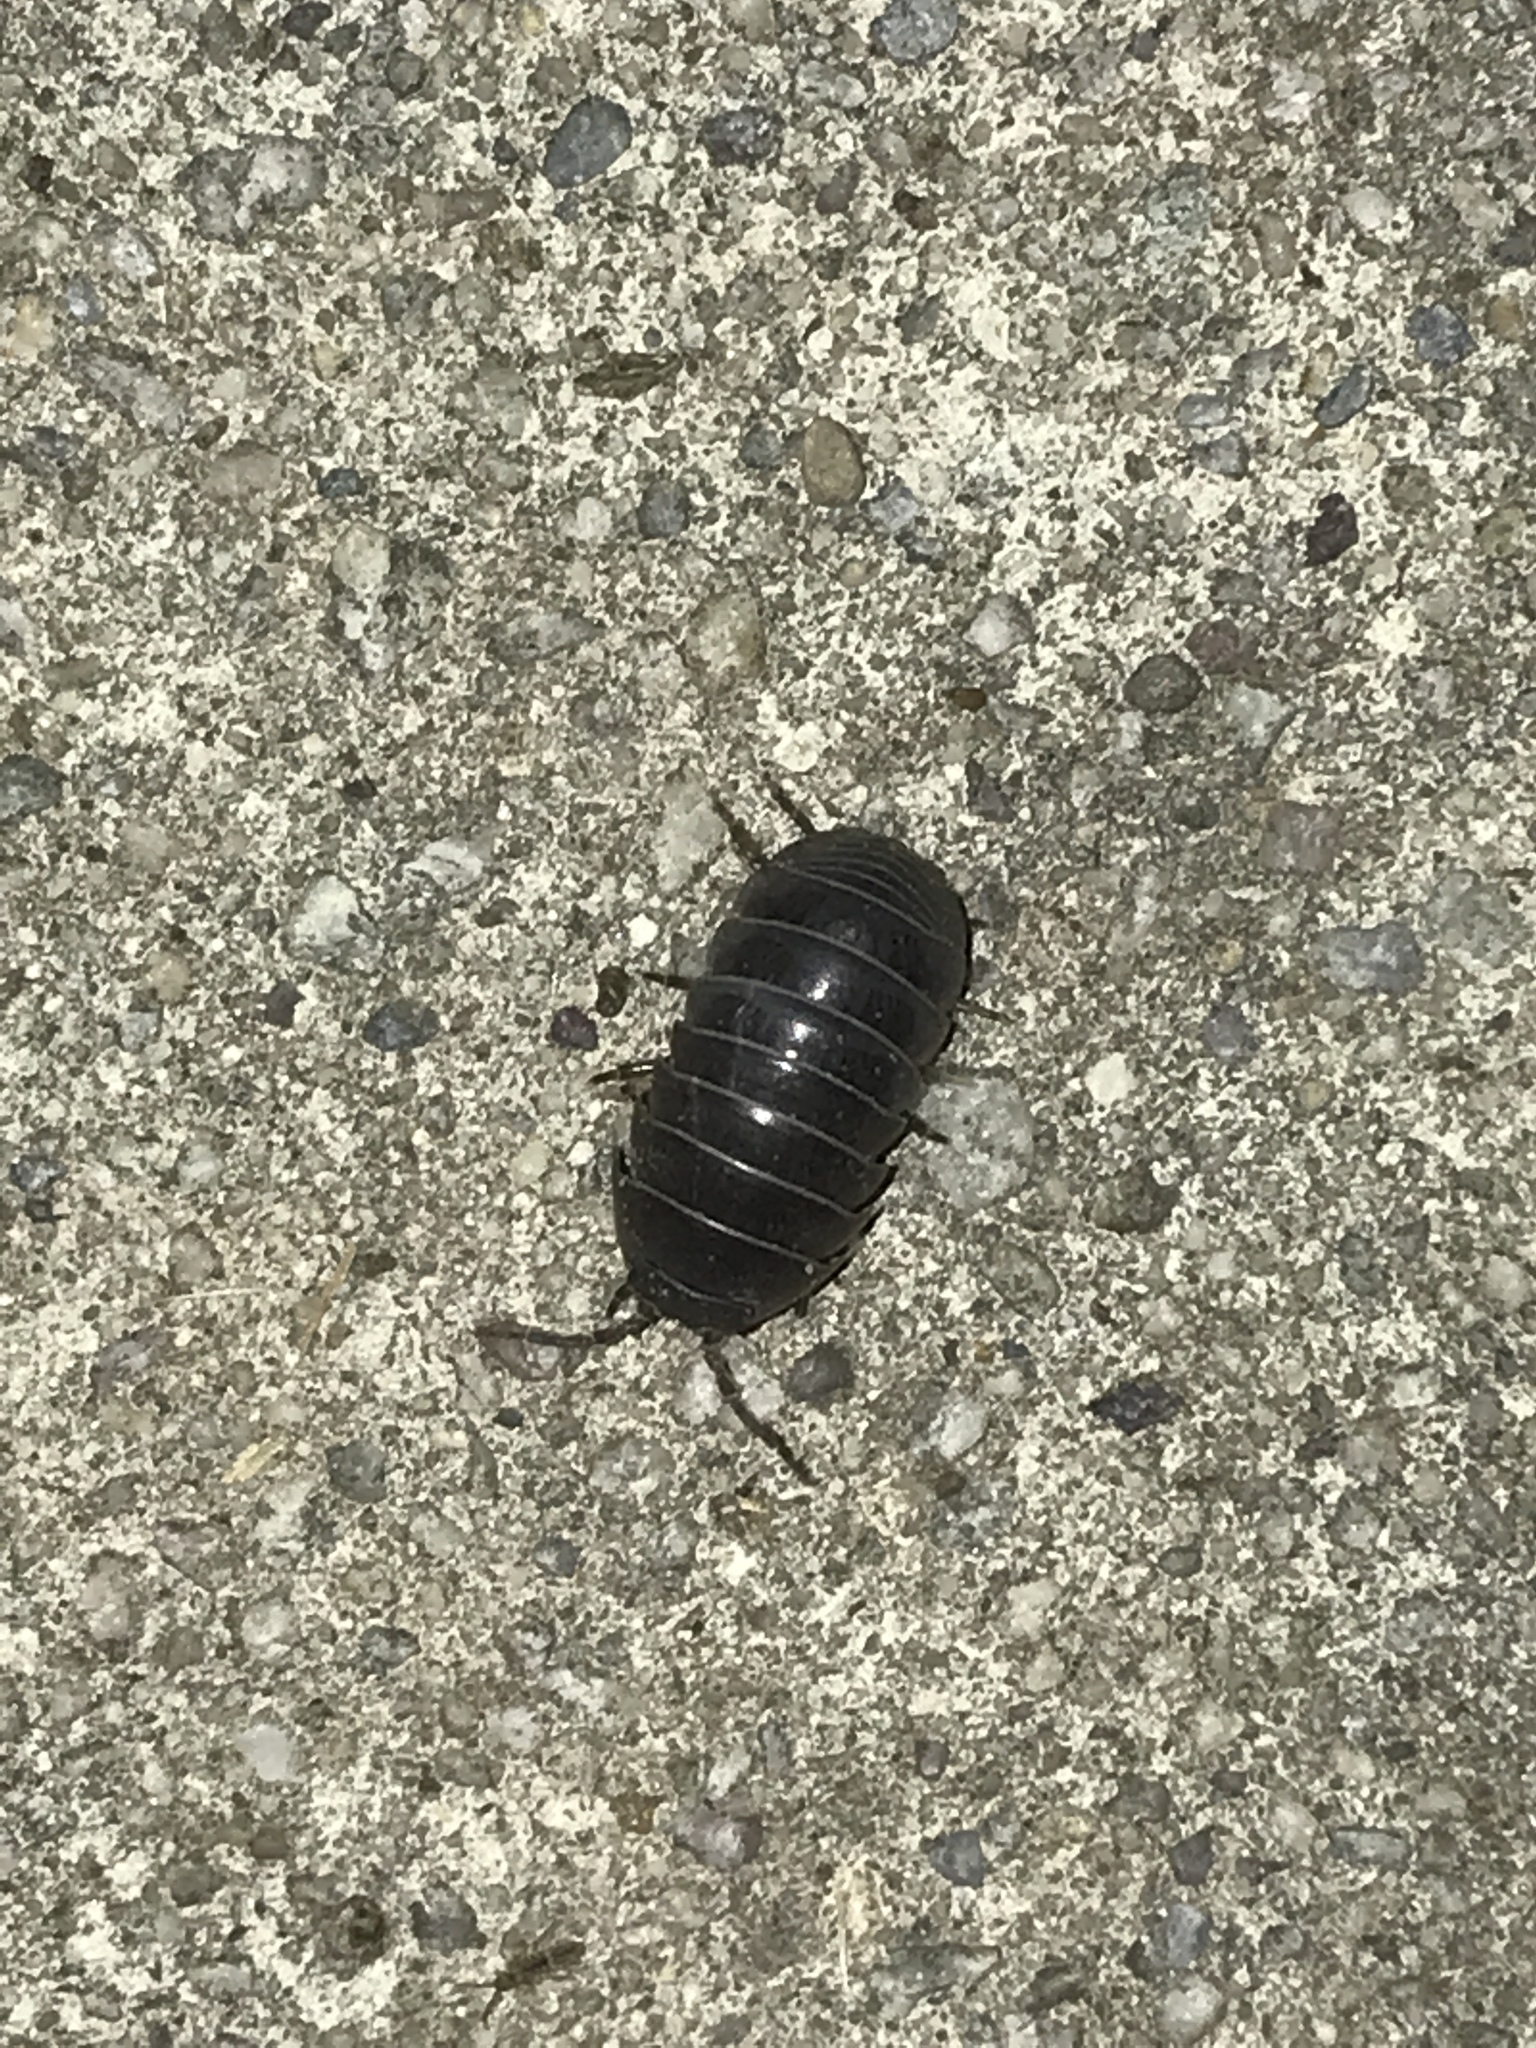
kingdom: Animalia
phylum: Arthropoda
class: Malacostraca
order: Isopoda
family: Armadillidiidae
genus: Armadillidium
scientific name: Armadillidium vulgare
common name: Common pill woodlouse
